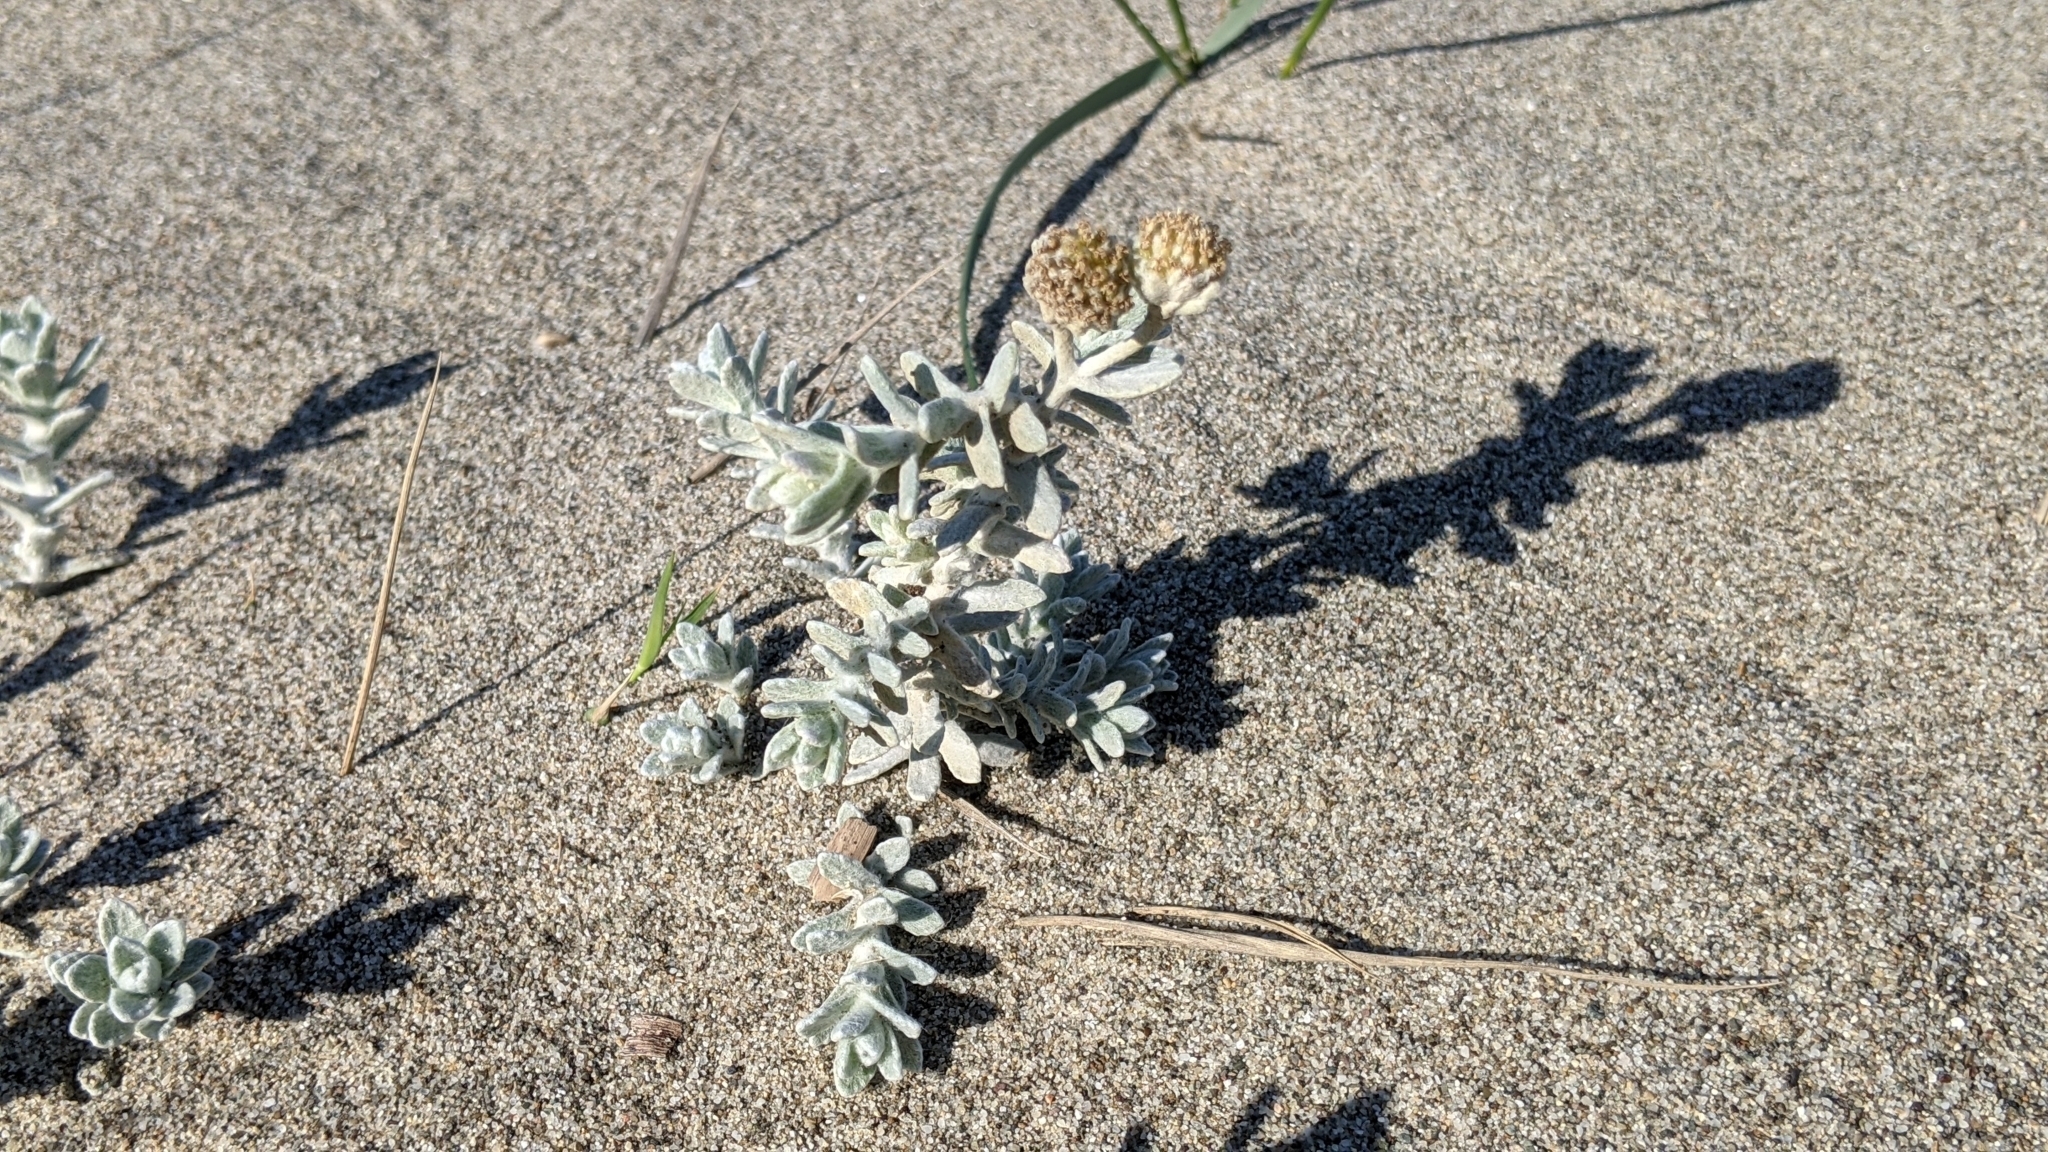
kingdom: Plantae
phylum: Tracheophyta
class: Magnoliopsida
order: Asterales
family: Asteraceae
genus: Achillea
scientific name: Achillea maritima
